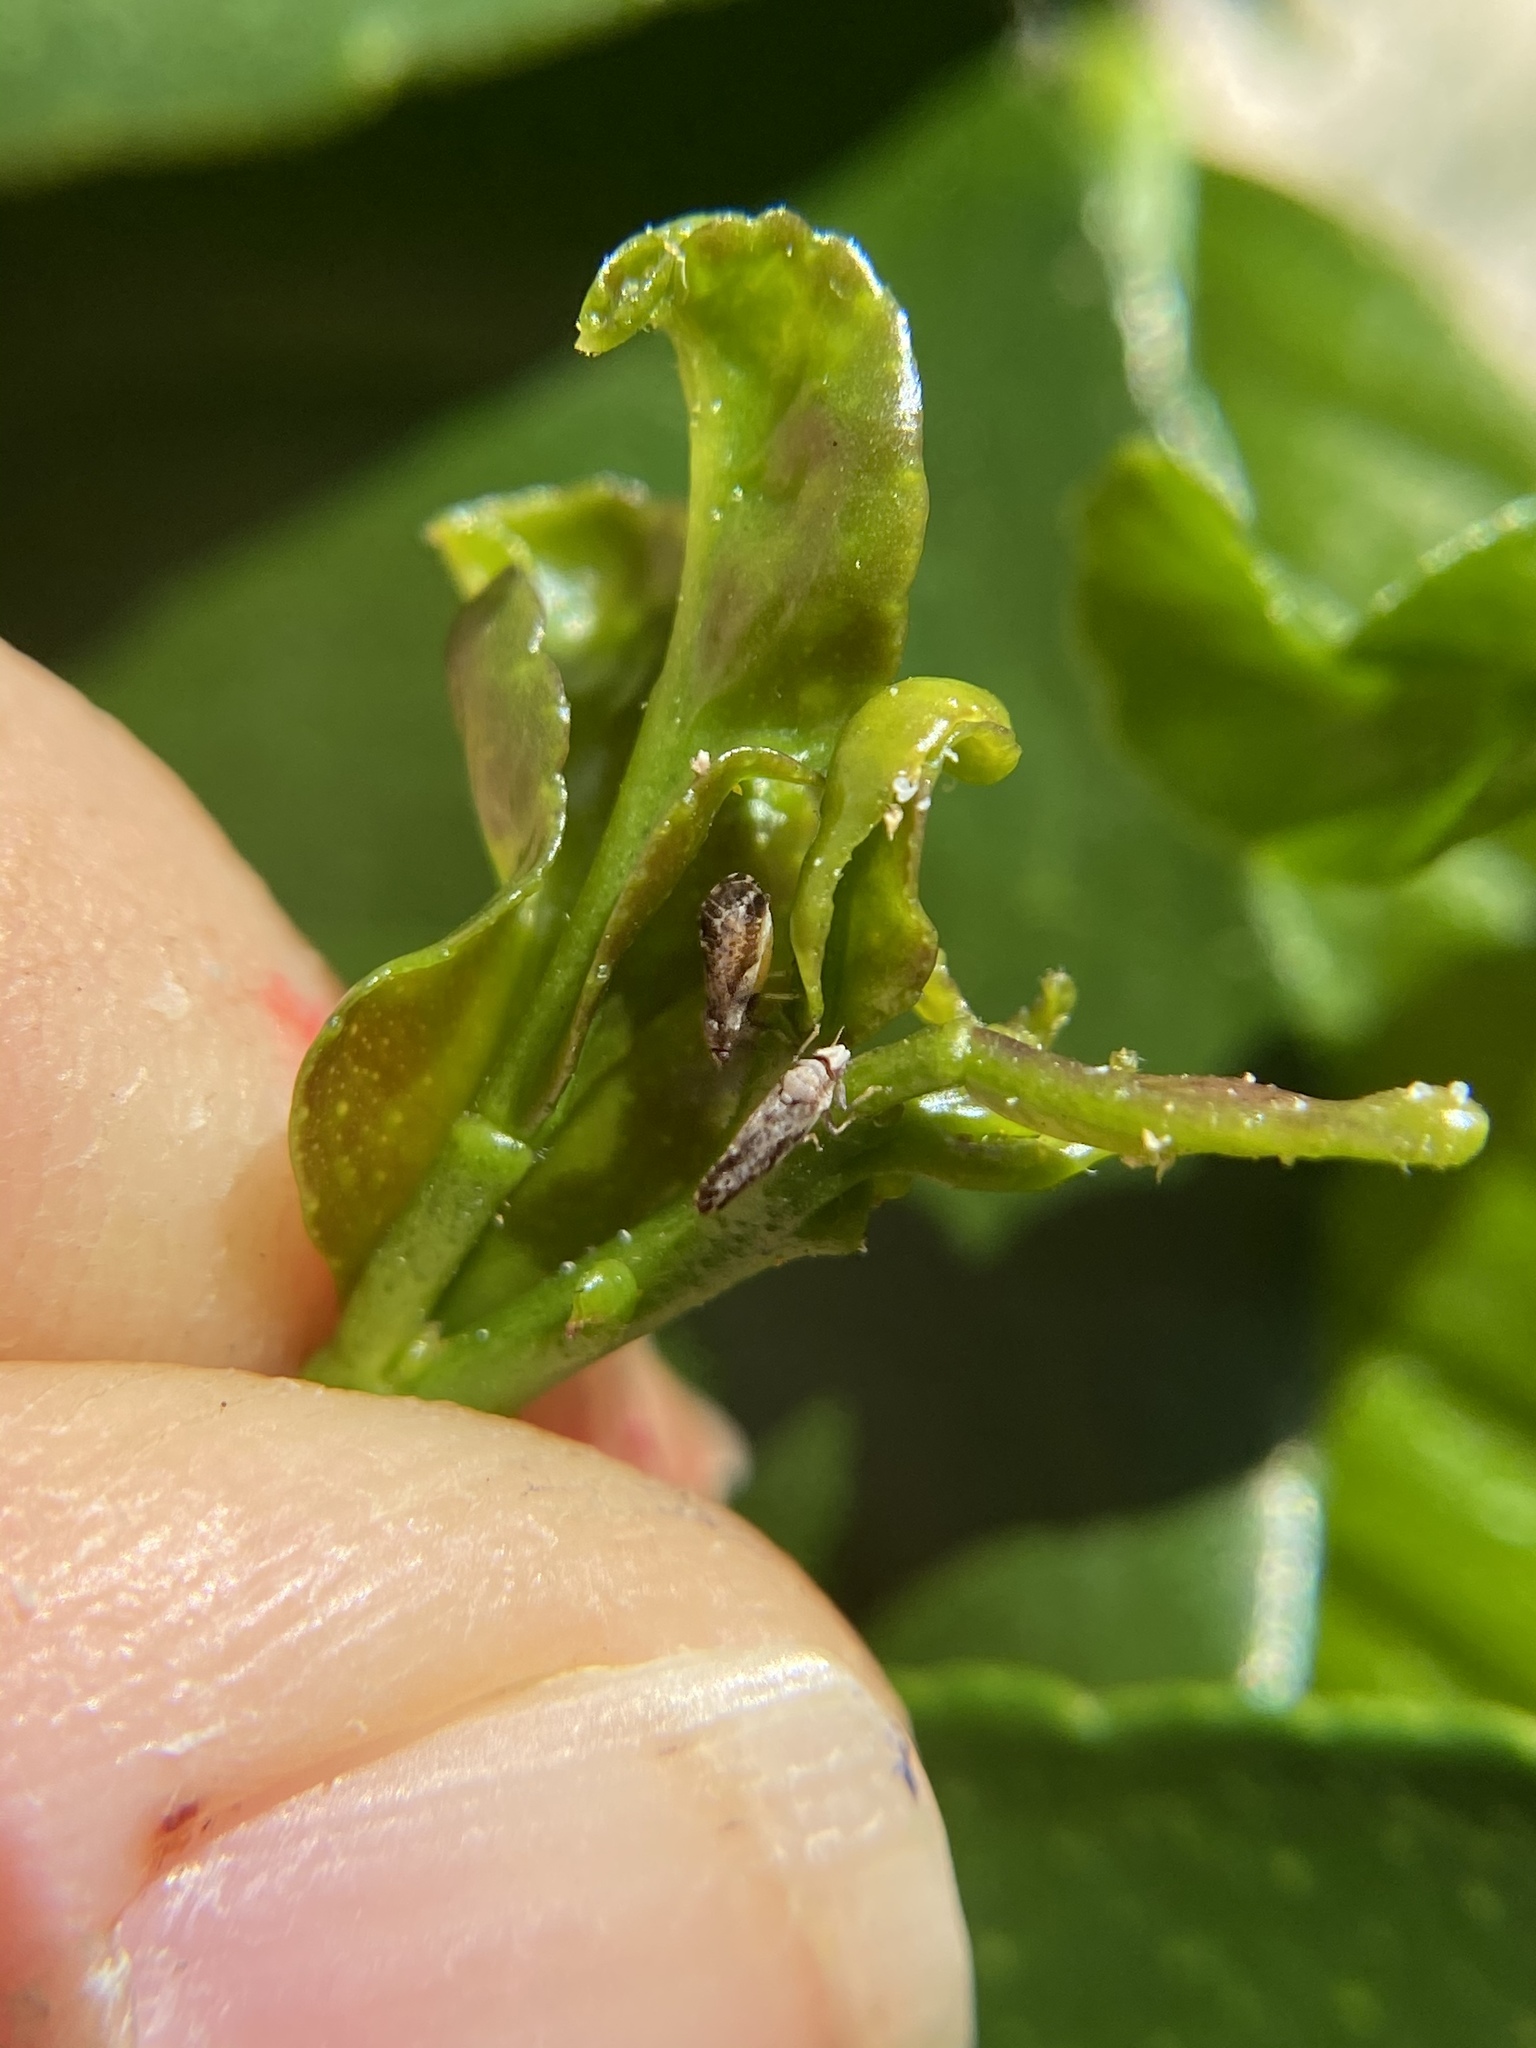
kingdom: Animalia
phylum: Arthropoda
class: Insecta
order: Hemiptera
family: Liviidae
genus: Diaphorina
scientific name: Diaphorina citri
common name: Asian citrus psyllid
